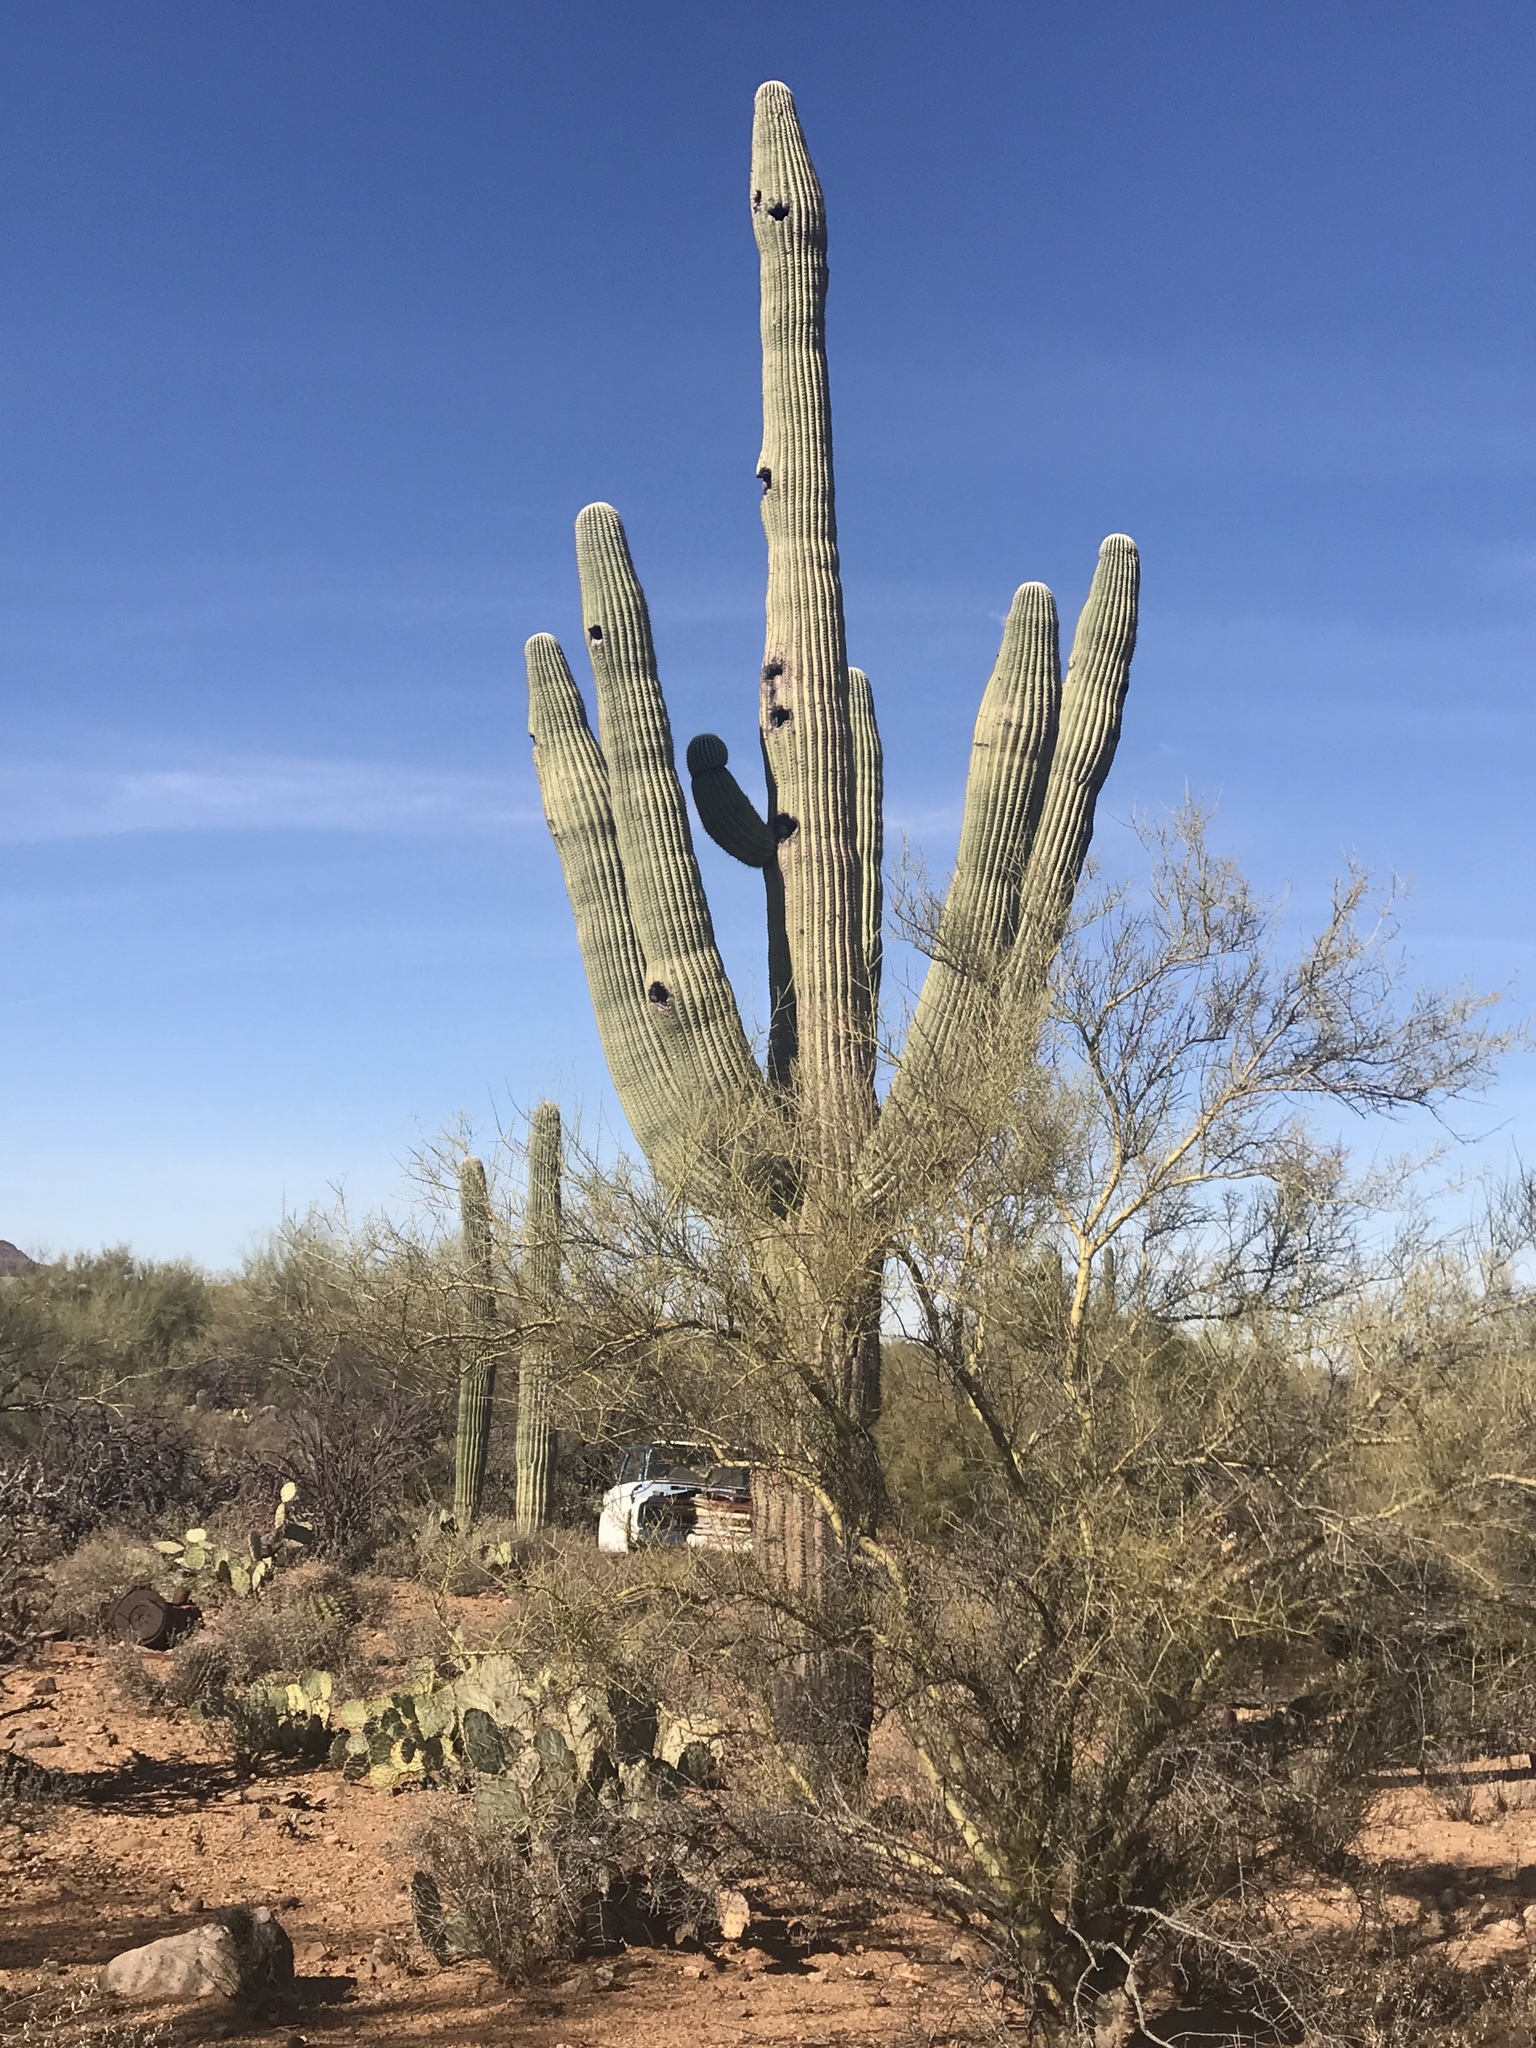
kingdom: Plantae
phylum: Tracheophyta
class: Magnoliopsida
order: Caryophyllales
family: Cactaceae
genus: Carnegiea
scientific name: Carnegiea gigantea
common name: Saguaro
